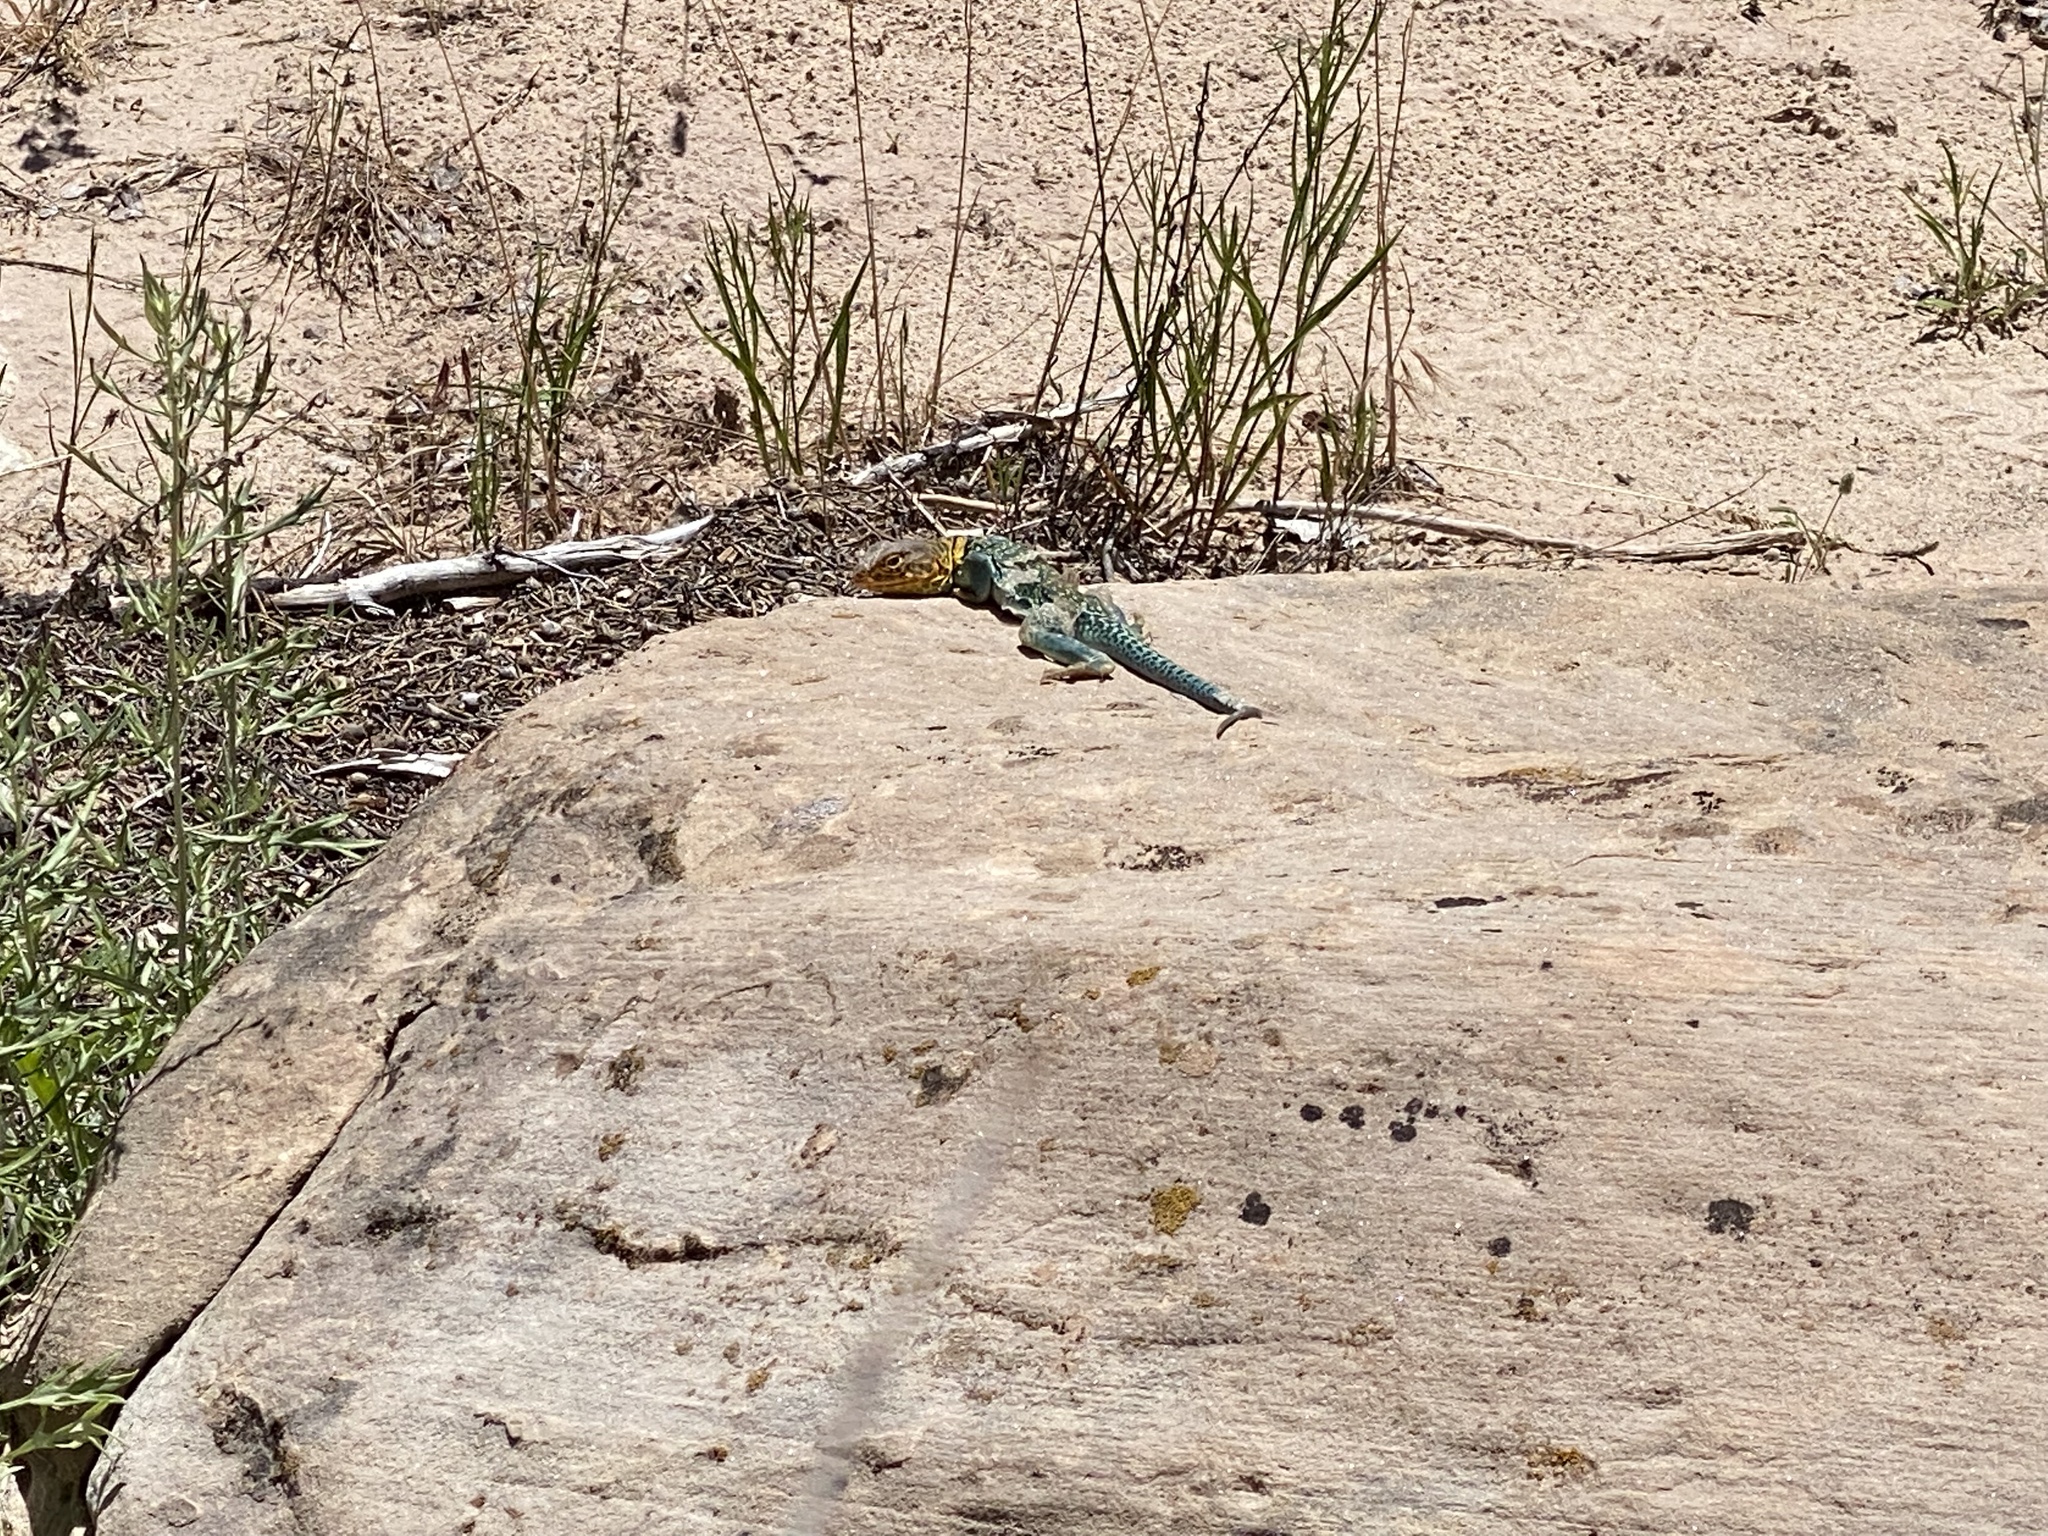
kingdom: Animalia
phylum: Chordata
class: Squamata
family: Crotaphytidae
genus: Crotaphytus
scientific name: Crotaphytus collaris
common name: Collared lizard
